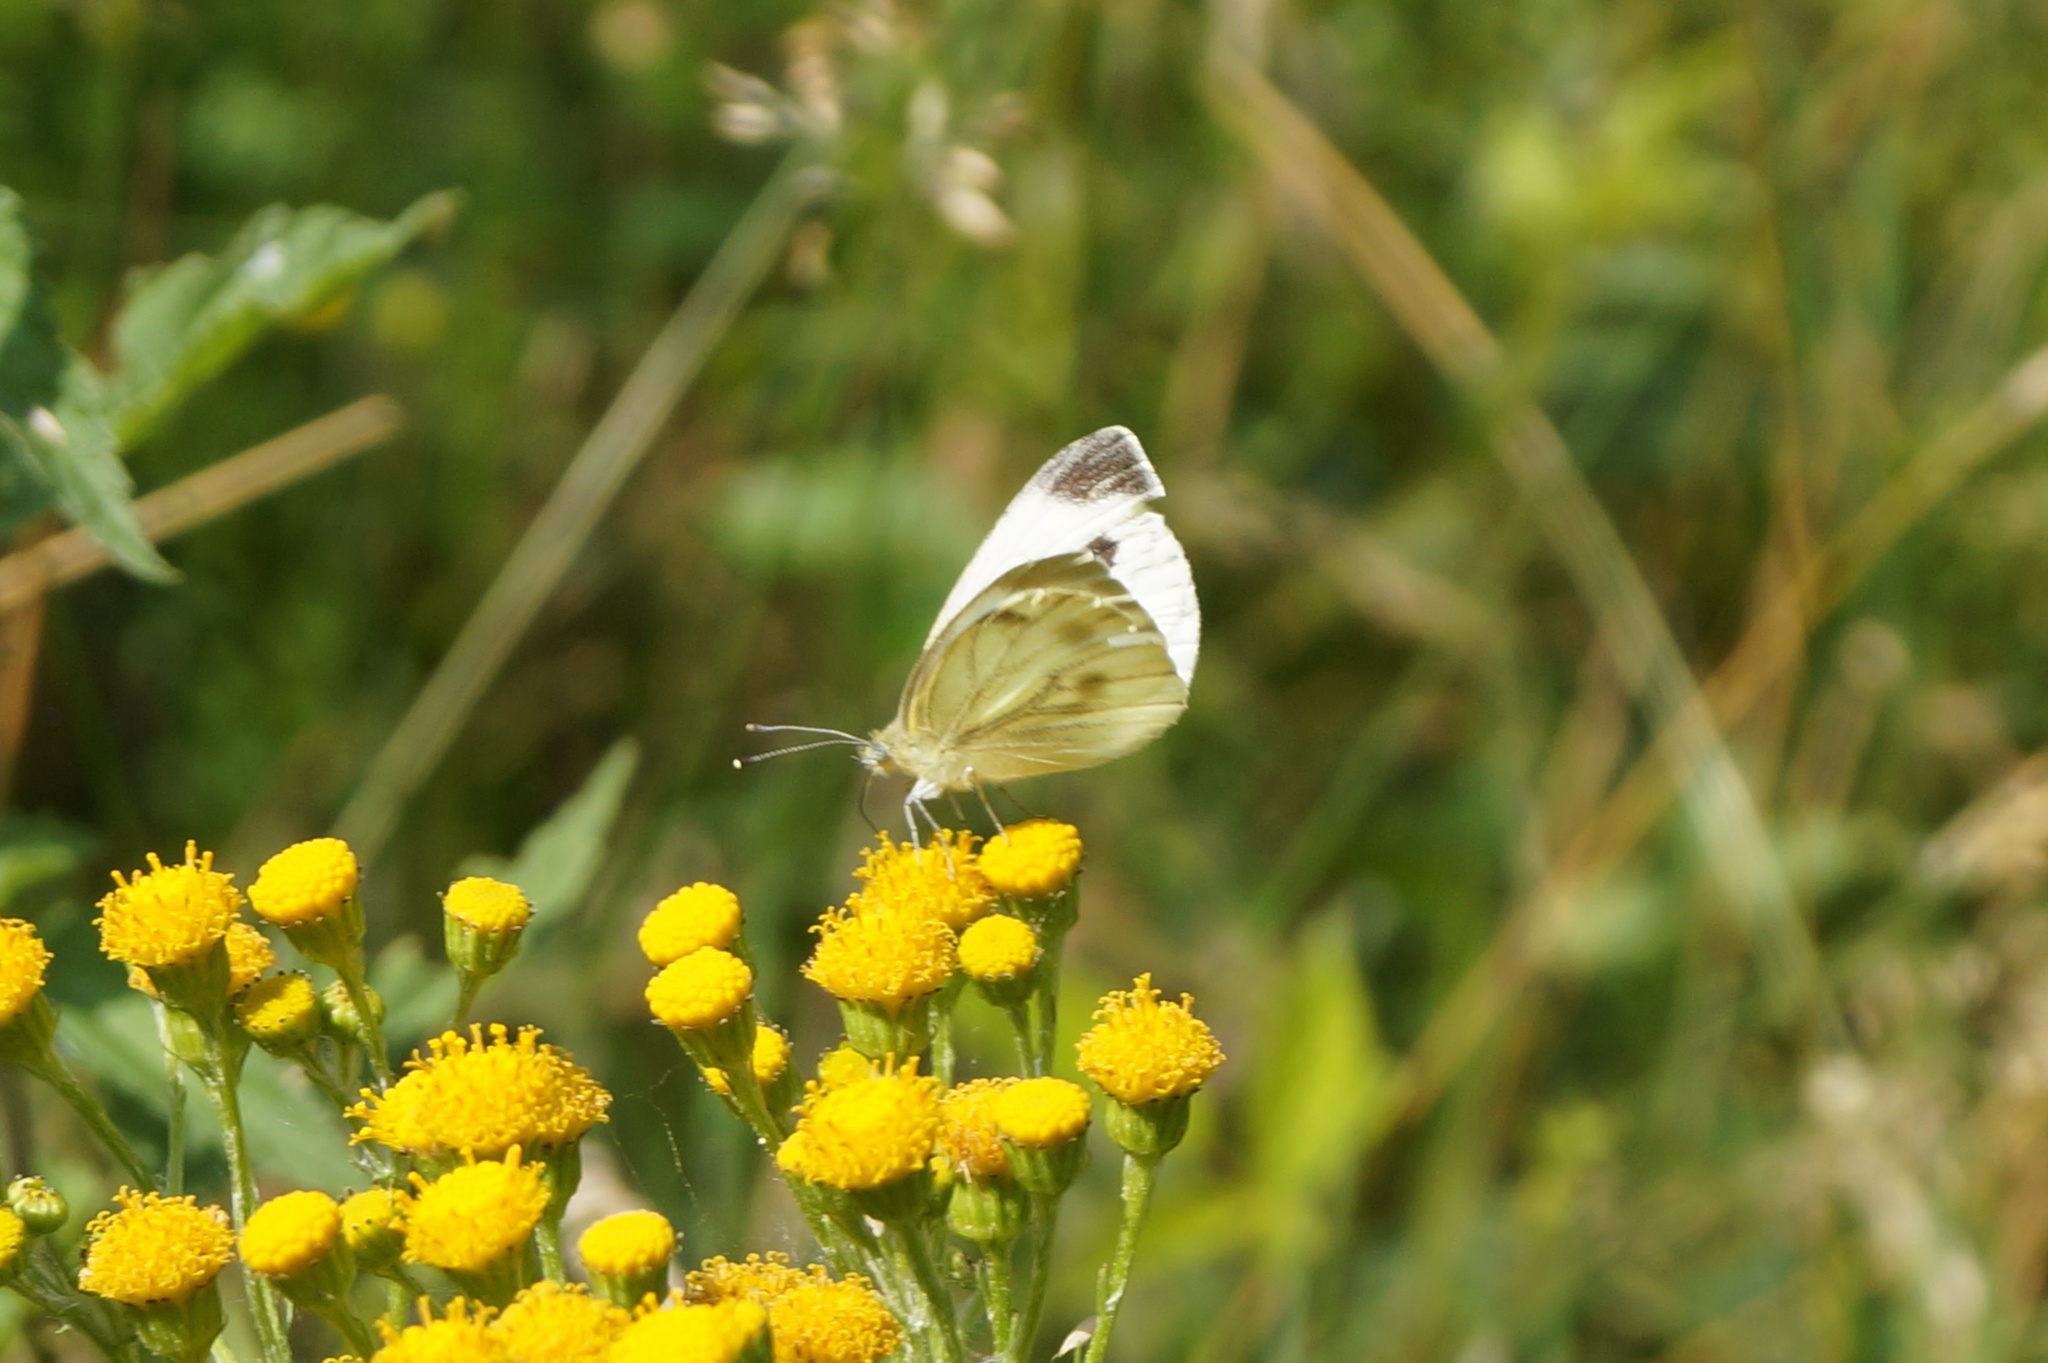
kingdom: Animalia
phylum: Arthropoda
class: Insecta
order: Lepidoptera
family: Pieridae
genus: Pieris
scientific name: Pieris napi
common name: Green-veined white
